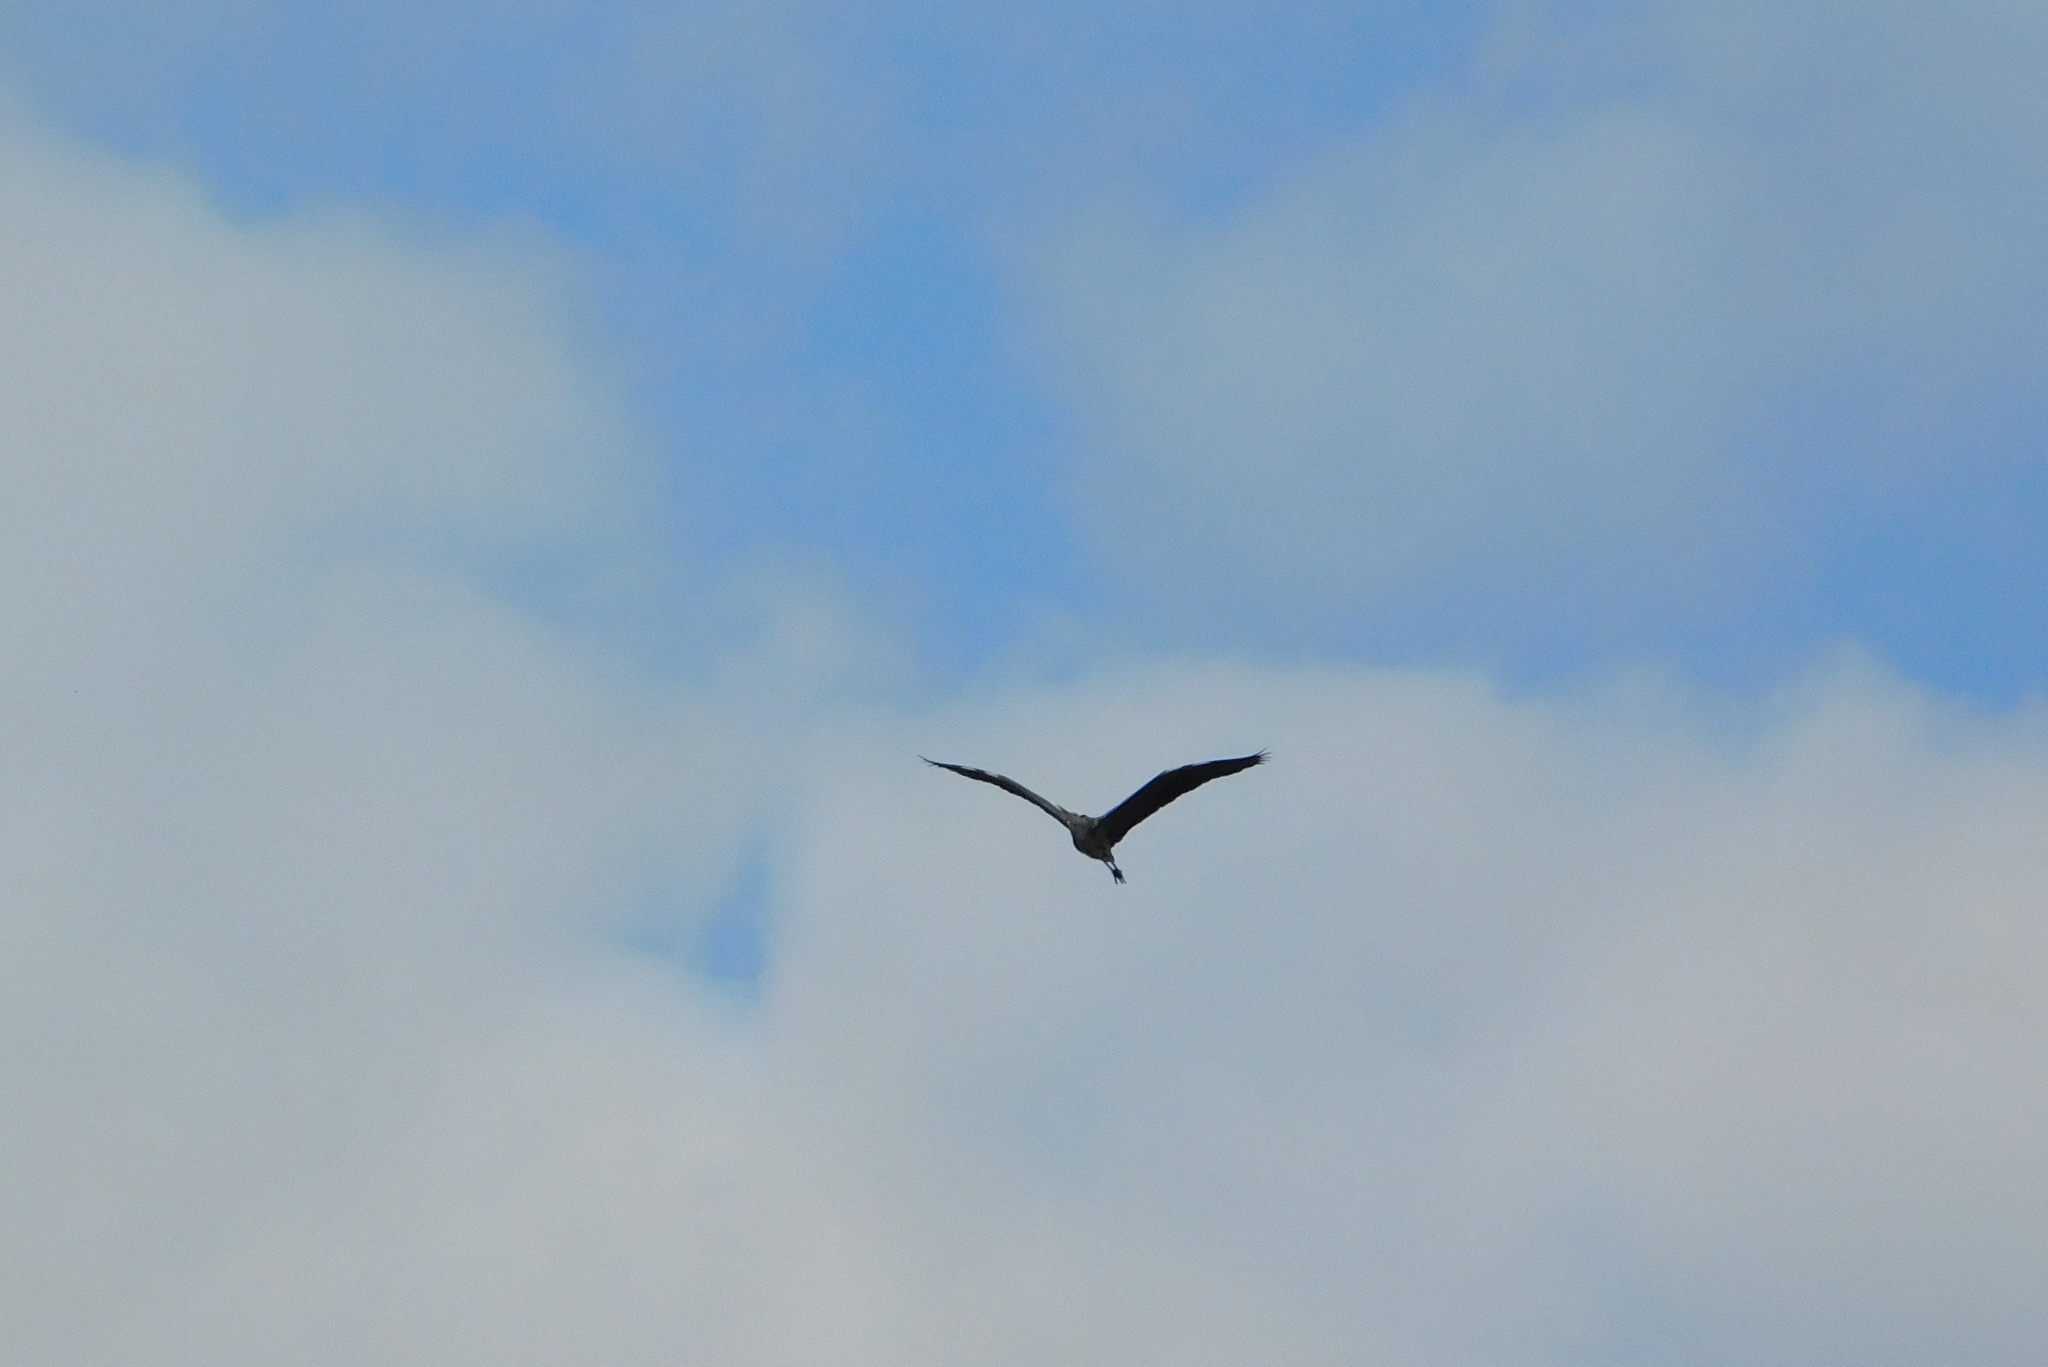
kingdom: Animalia
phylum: Chordata
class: Aves
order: Pelecaniformes
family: Ardeidae
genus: Ardea
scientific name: Ardea cinerea
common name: Grey heron
